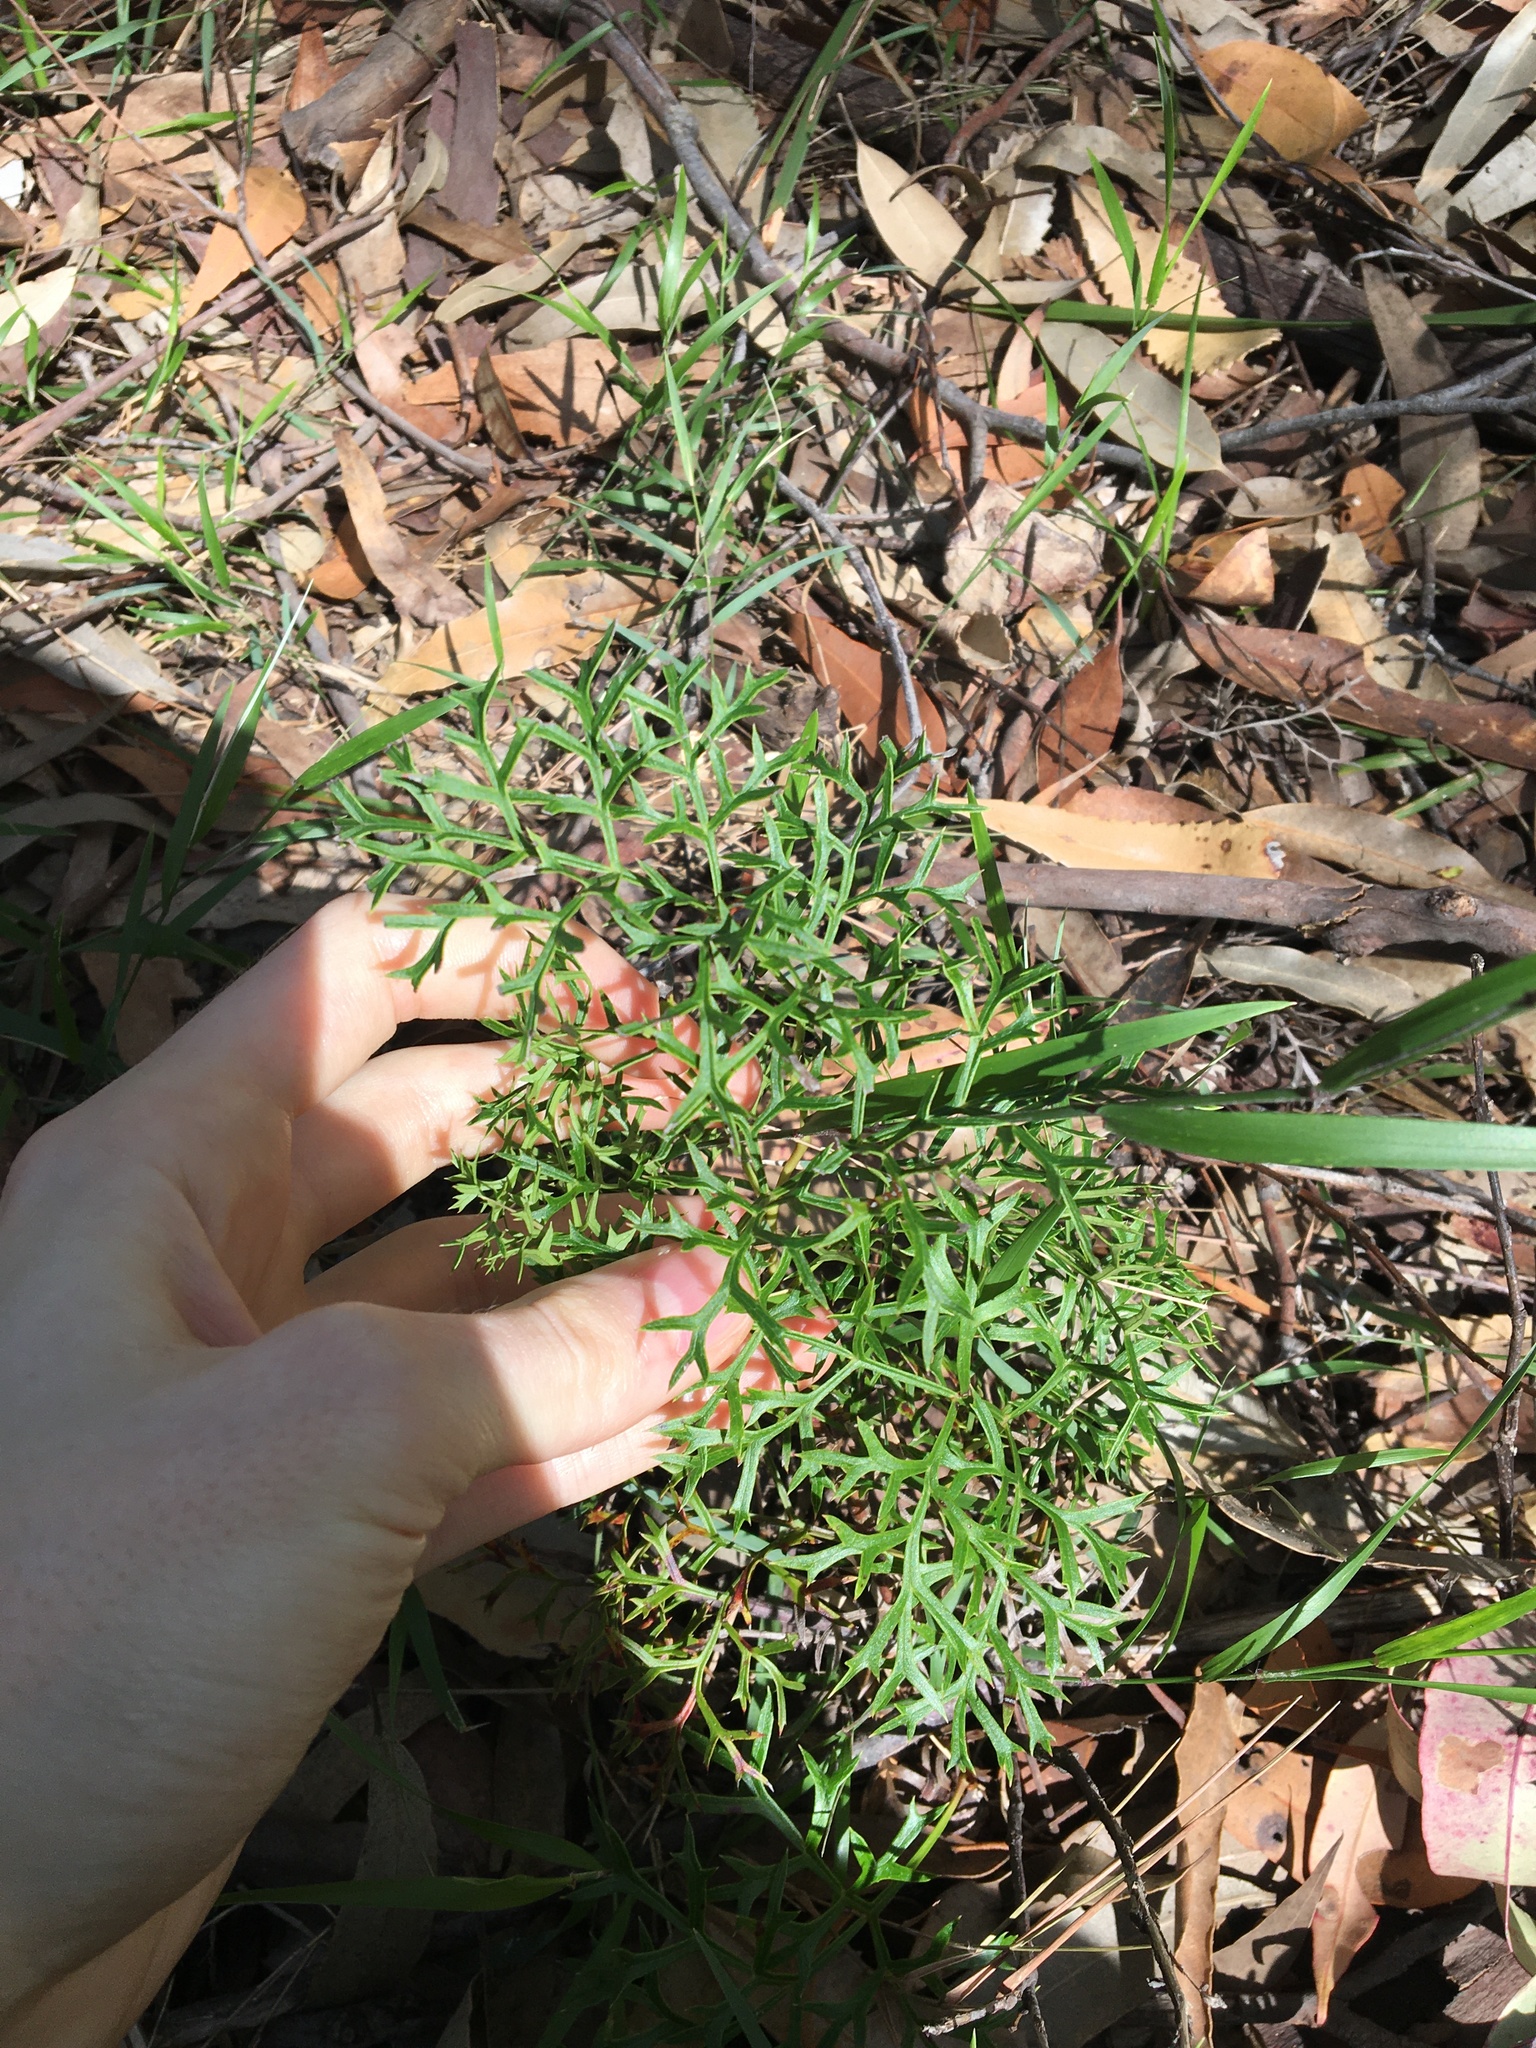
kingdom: Plantae
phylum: Tracheophyta
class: Magnoliopsida
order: Proteales
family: Proteaceae
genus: Lomatia
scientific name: Lomatia silaifolia
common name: Crinklebush
